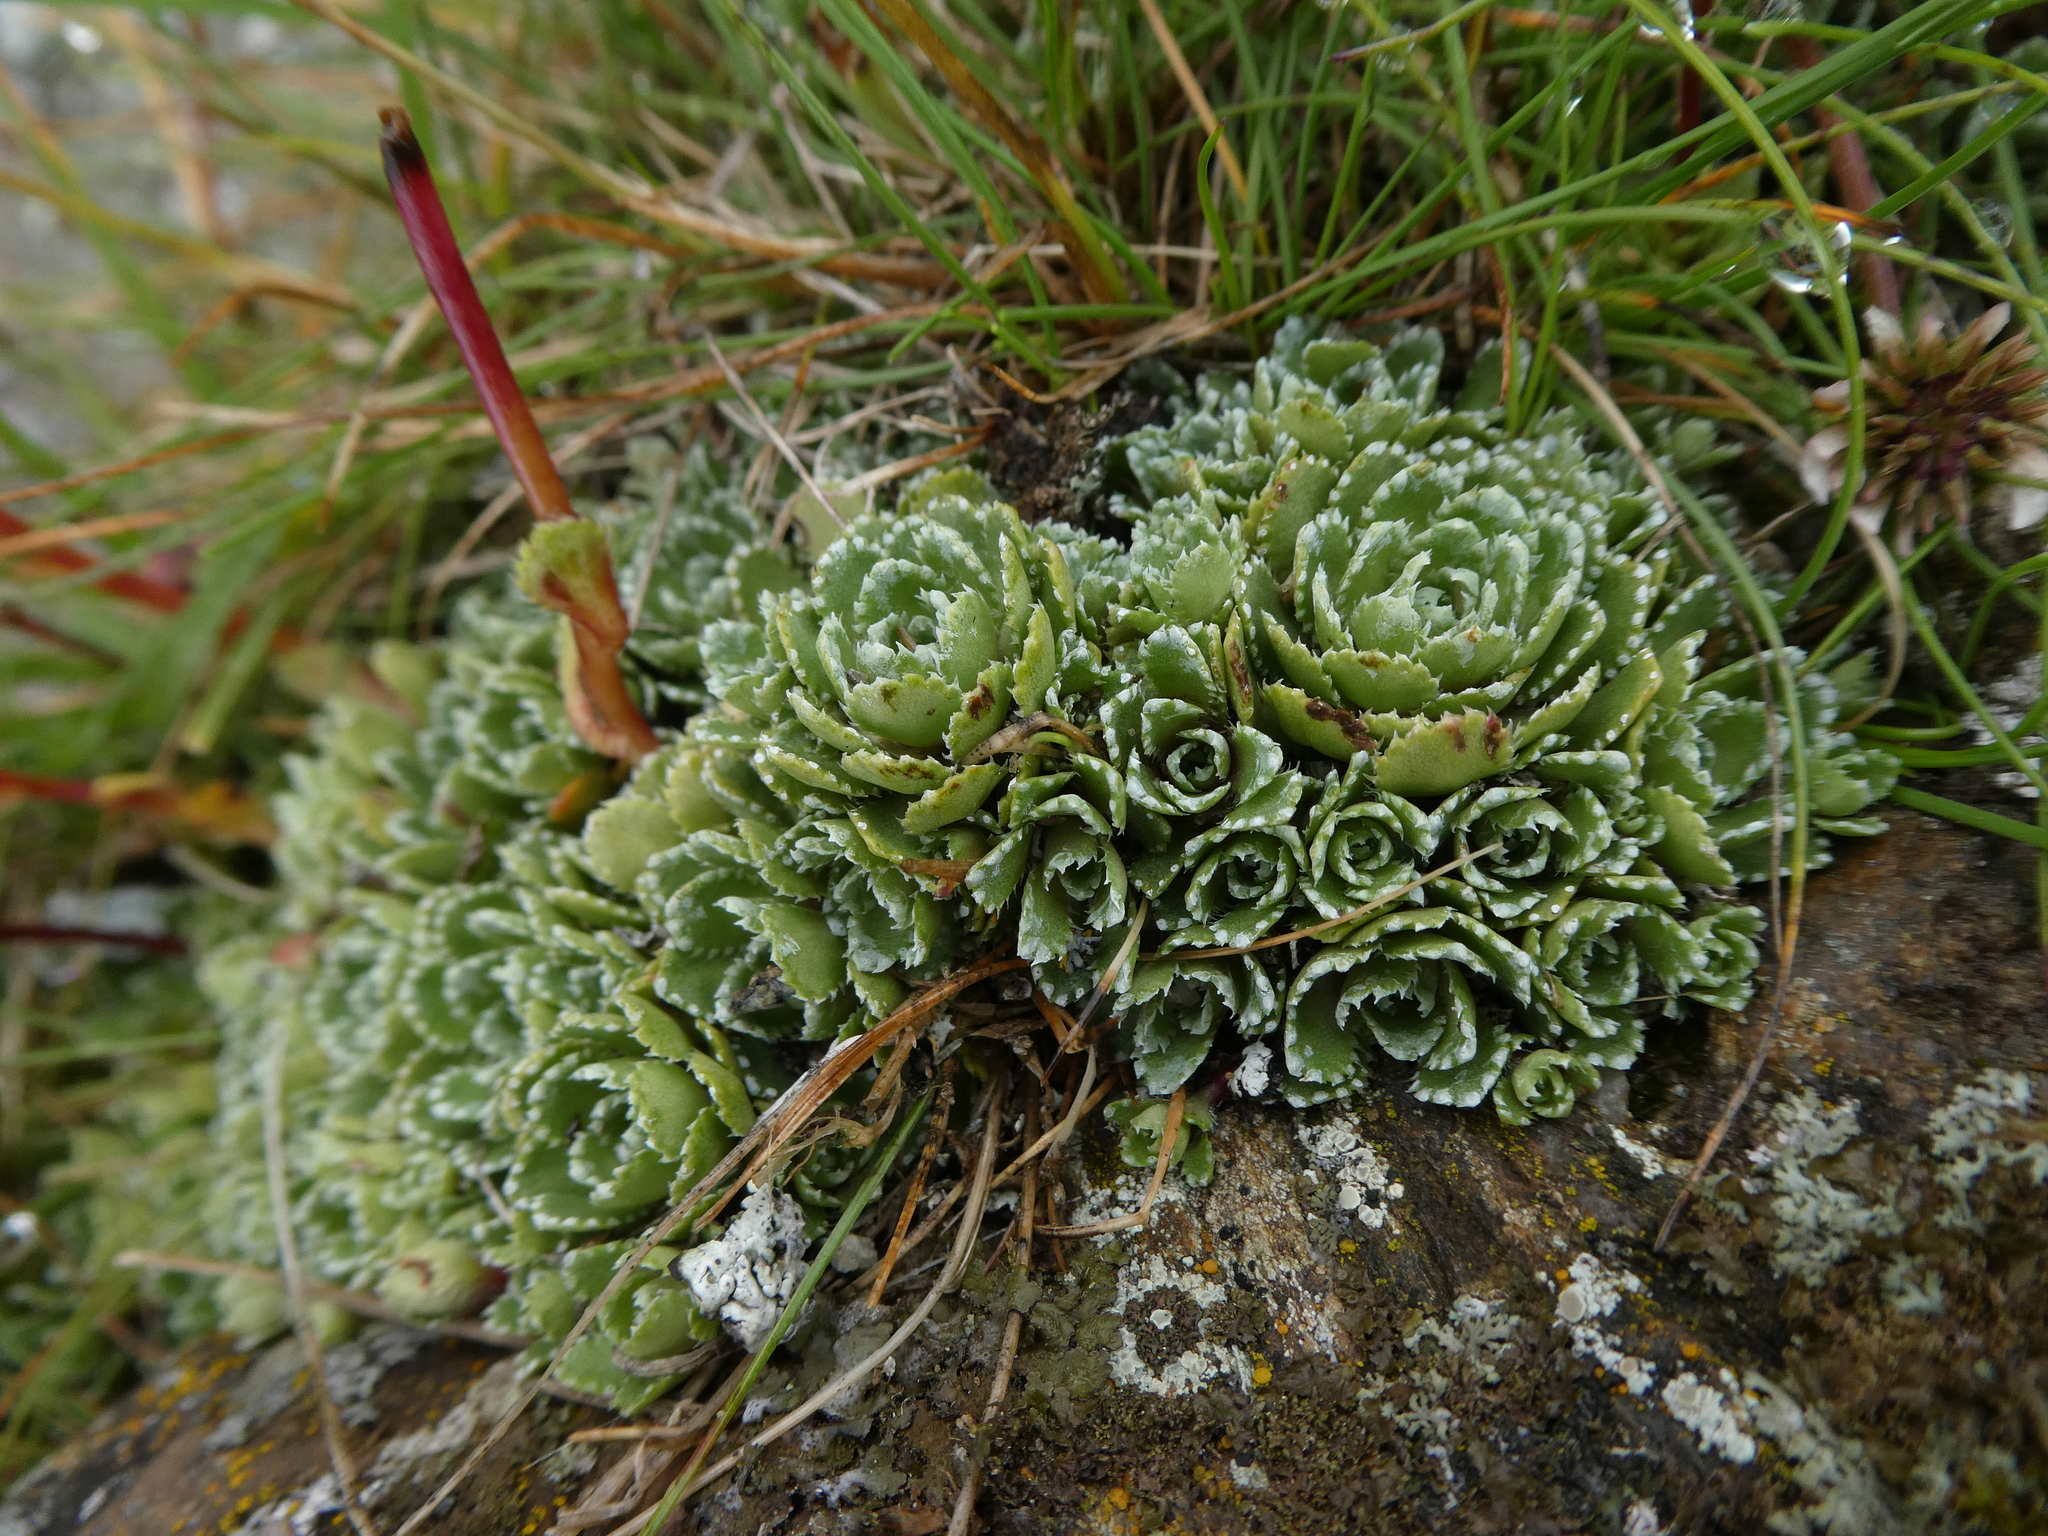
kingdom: Plantae
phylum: Tracheophyta
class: Magnoliopsida
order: Saxifragales
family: Saxifragaceae
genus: Saxifraga
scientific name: Saxifraga paniculata
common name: Livelong saxifrage
